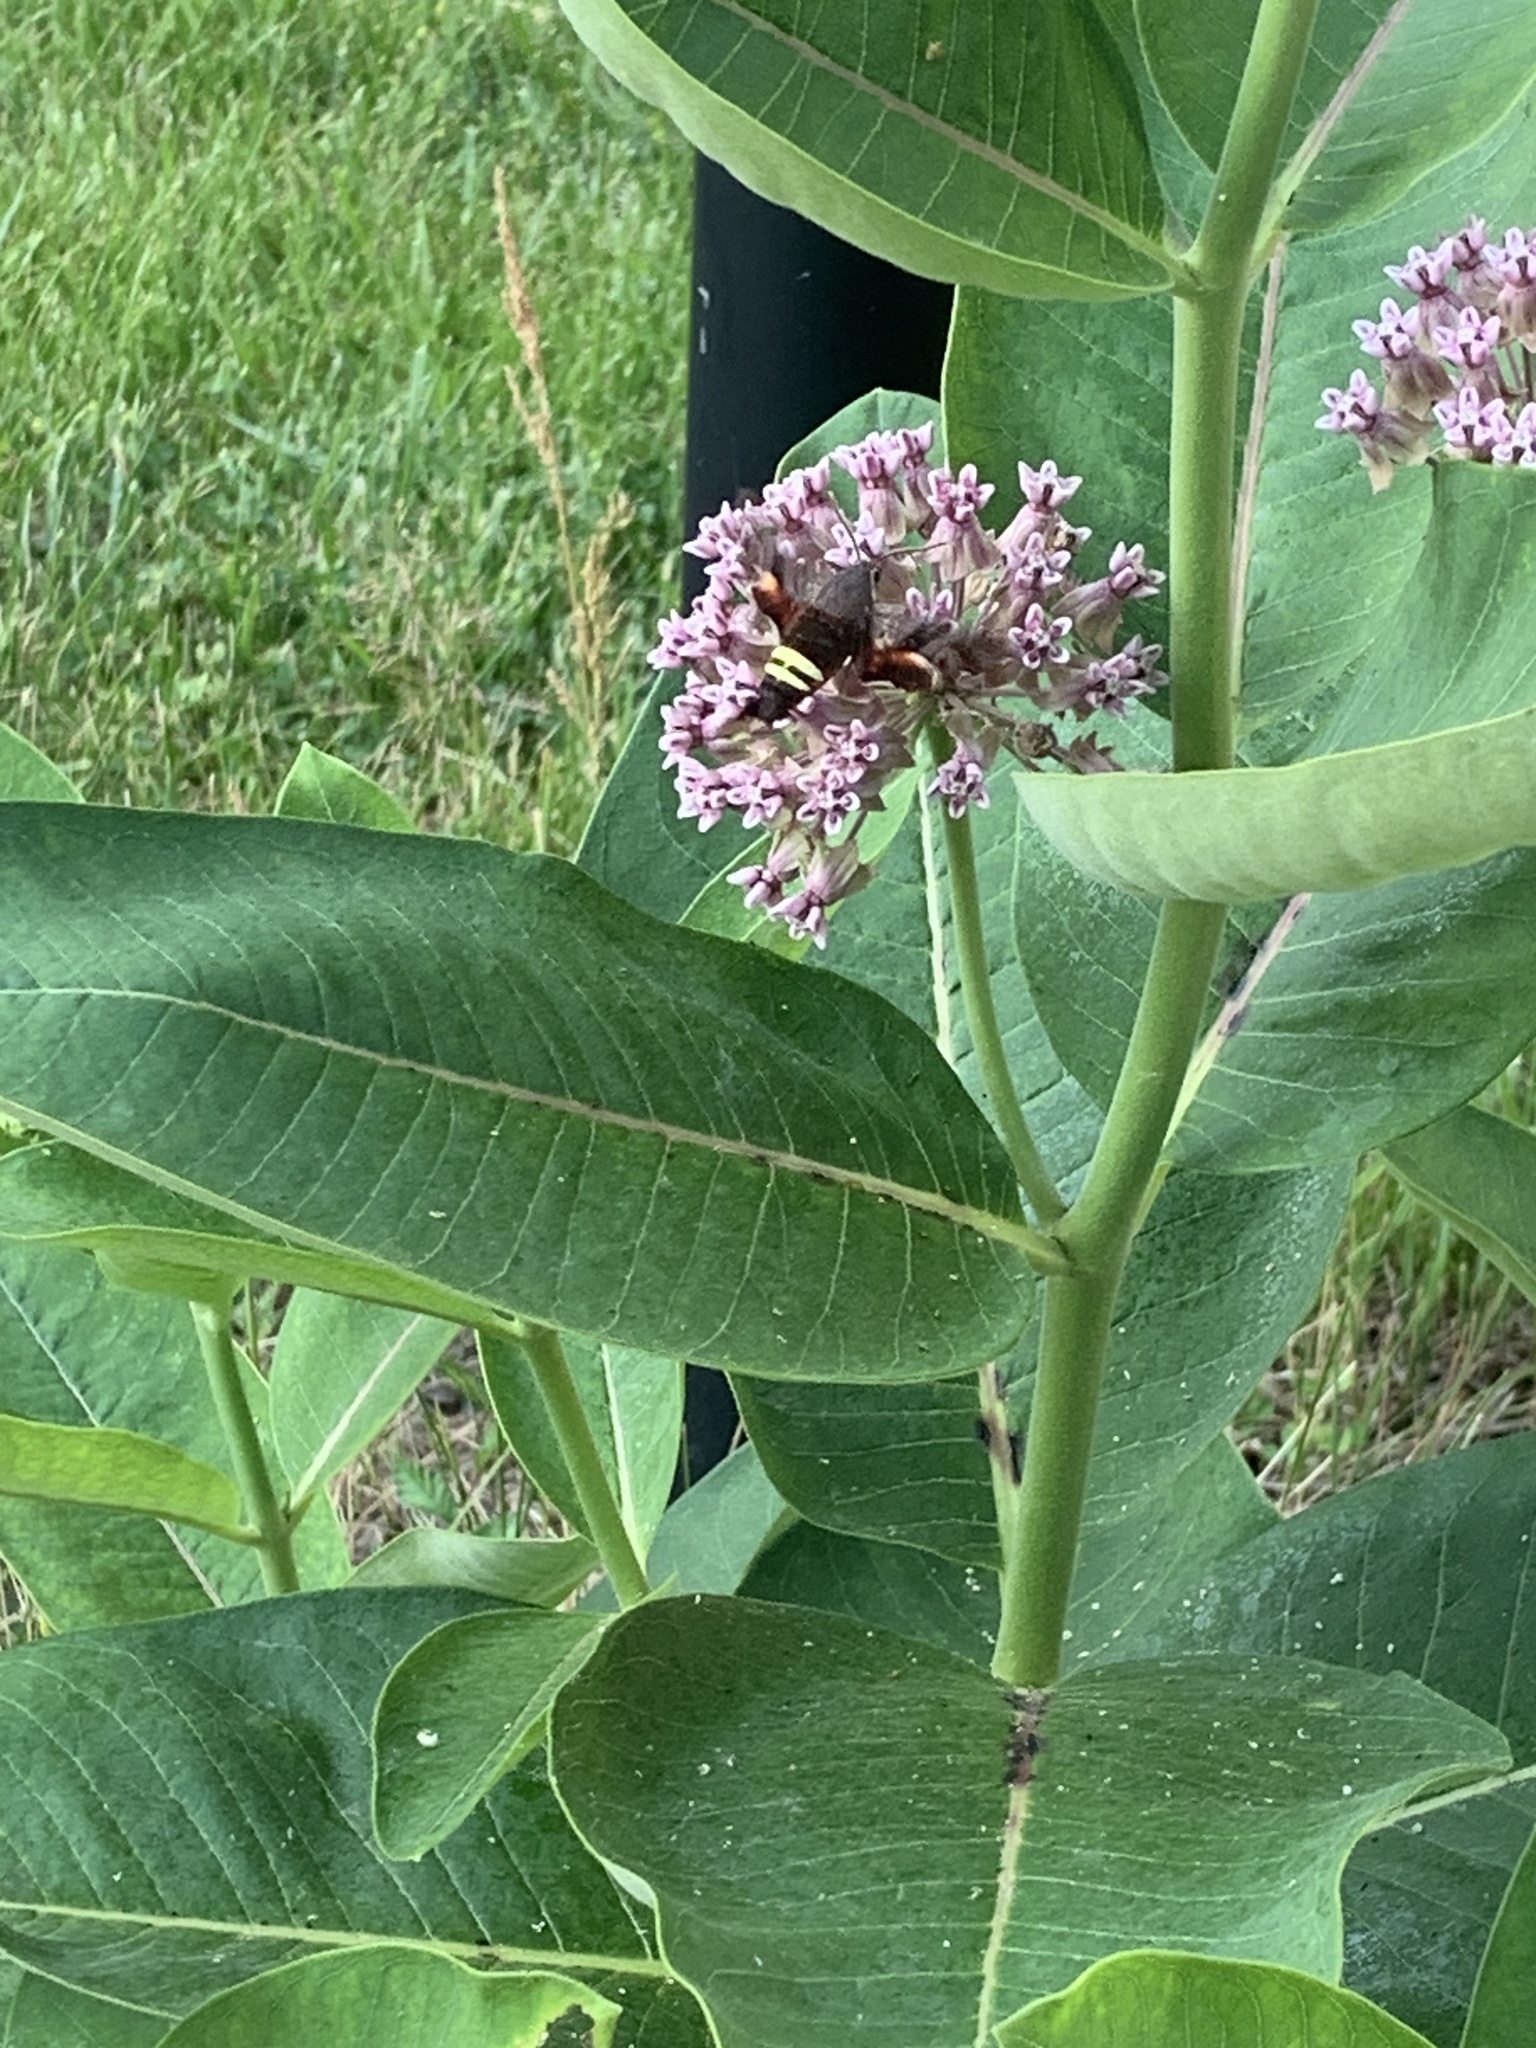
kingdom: Animalia
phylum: Arthropoda
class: Insecta
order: Lepidoptera
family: Sphingidae
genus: Amphion
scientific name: Amphion floridensis
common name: Nessus sphinx
